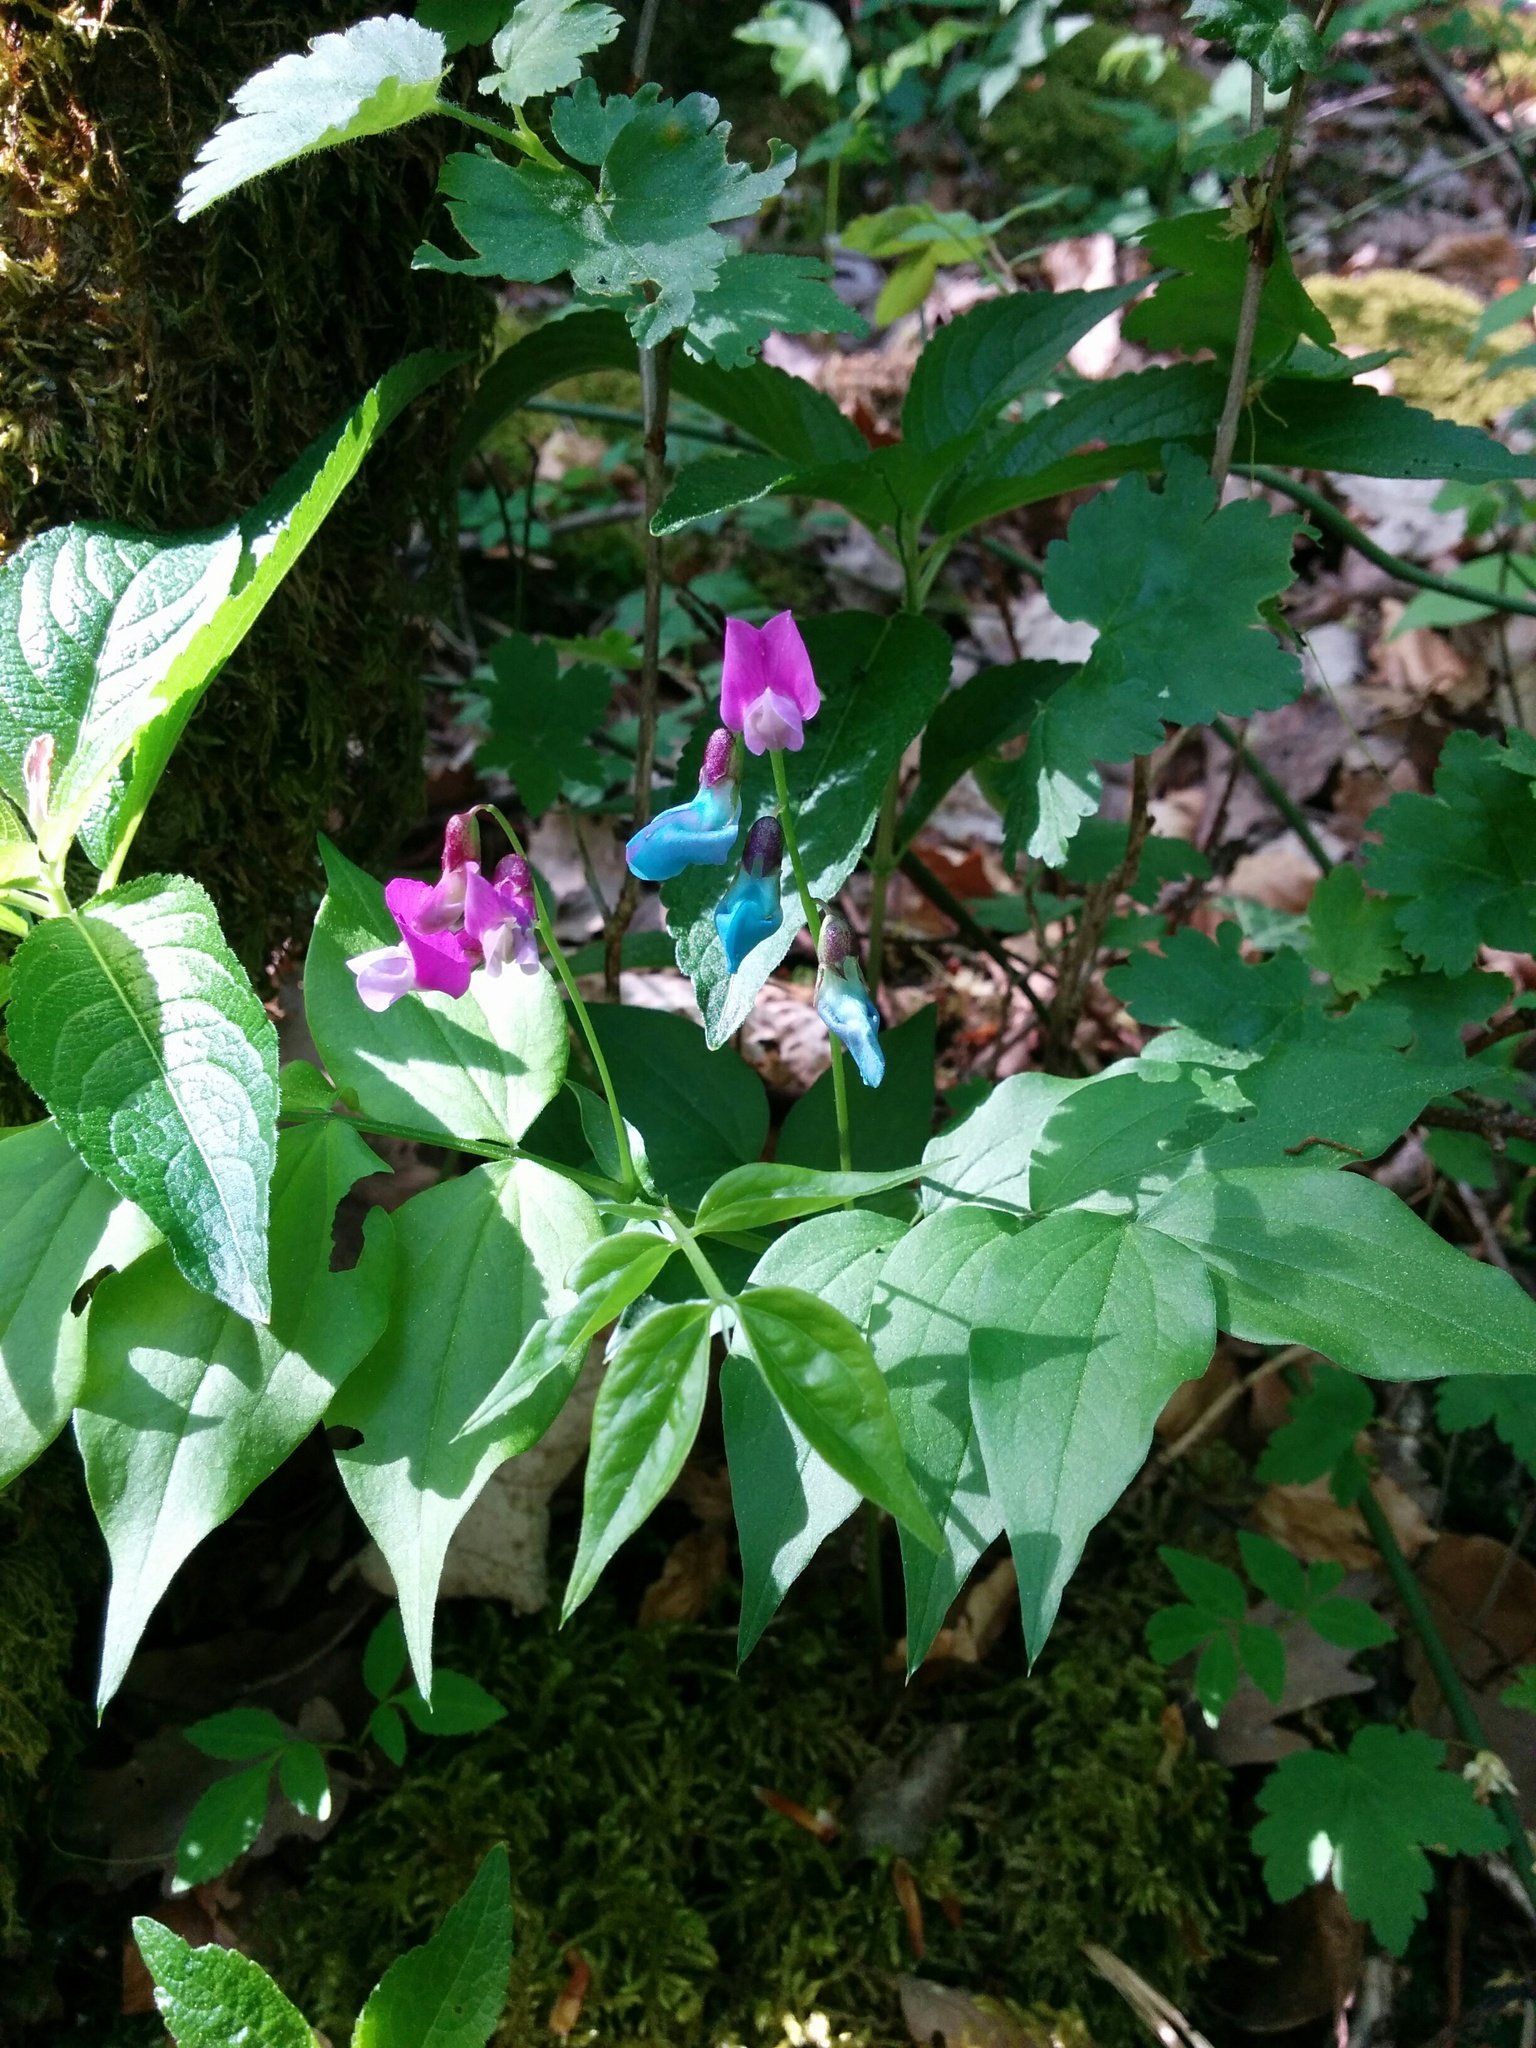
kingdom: Plantae
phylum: Tracheophyta
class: Magnoliopsida
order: Fabales
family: Fabaceae
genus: Lathyrus
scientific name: Lathyrus vernus
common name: Spring pea
